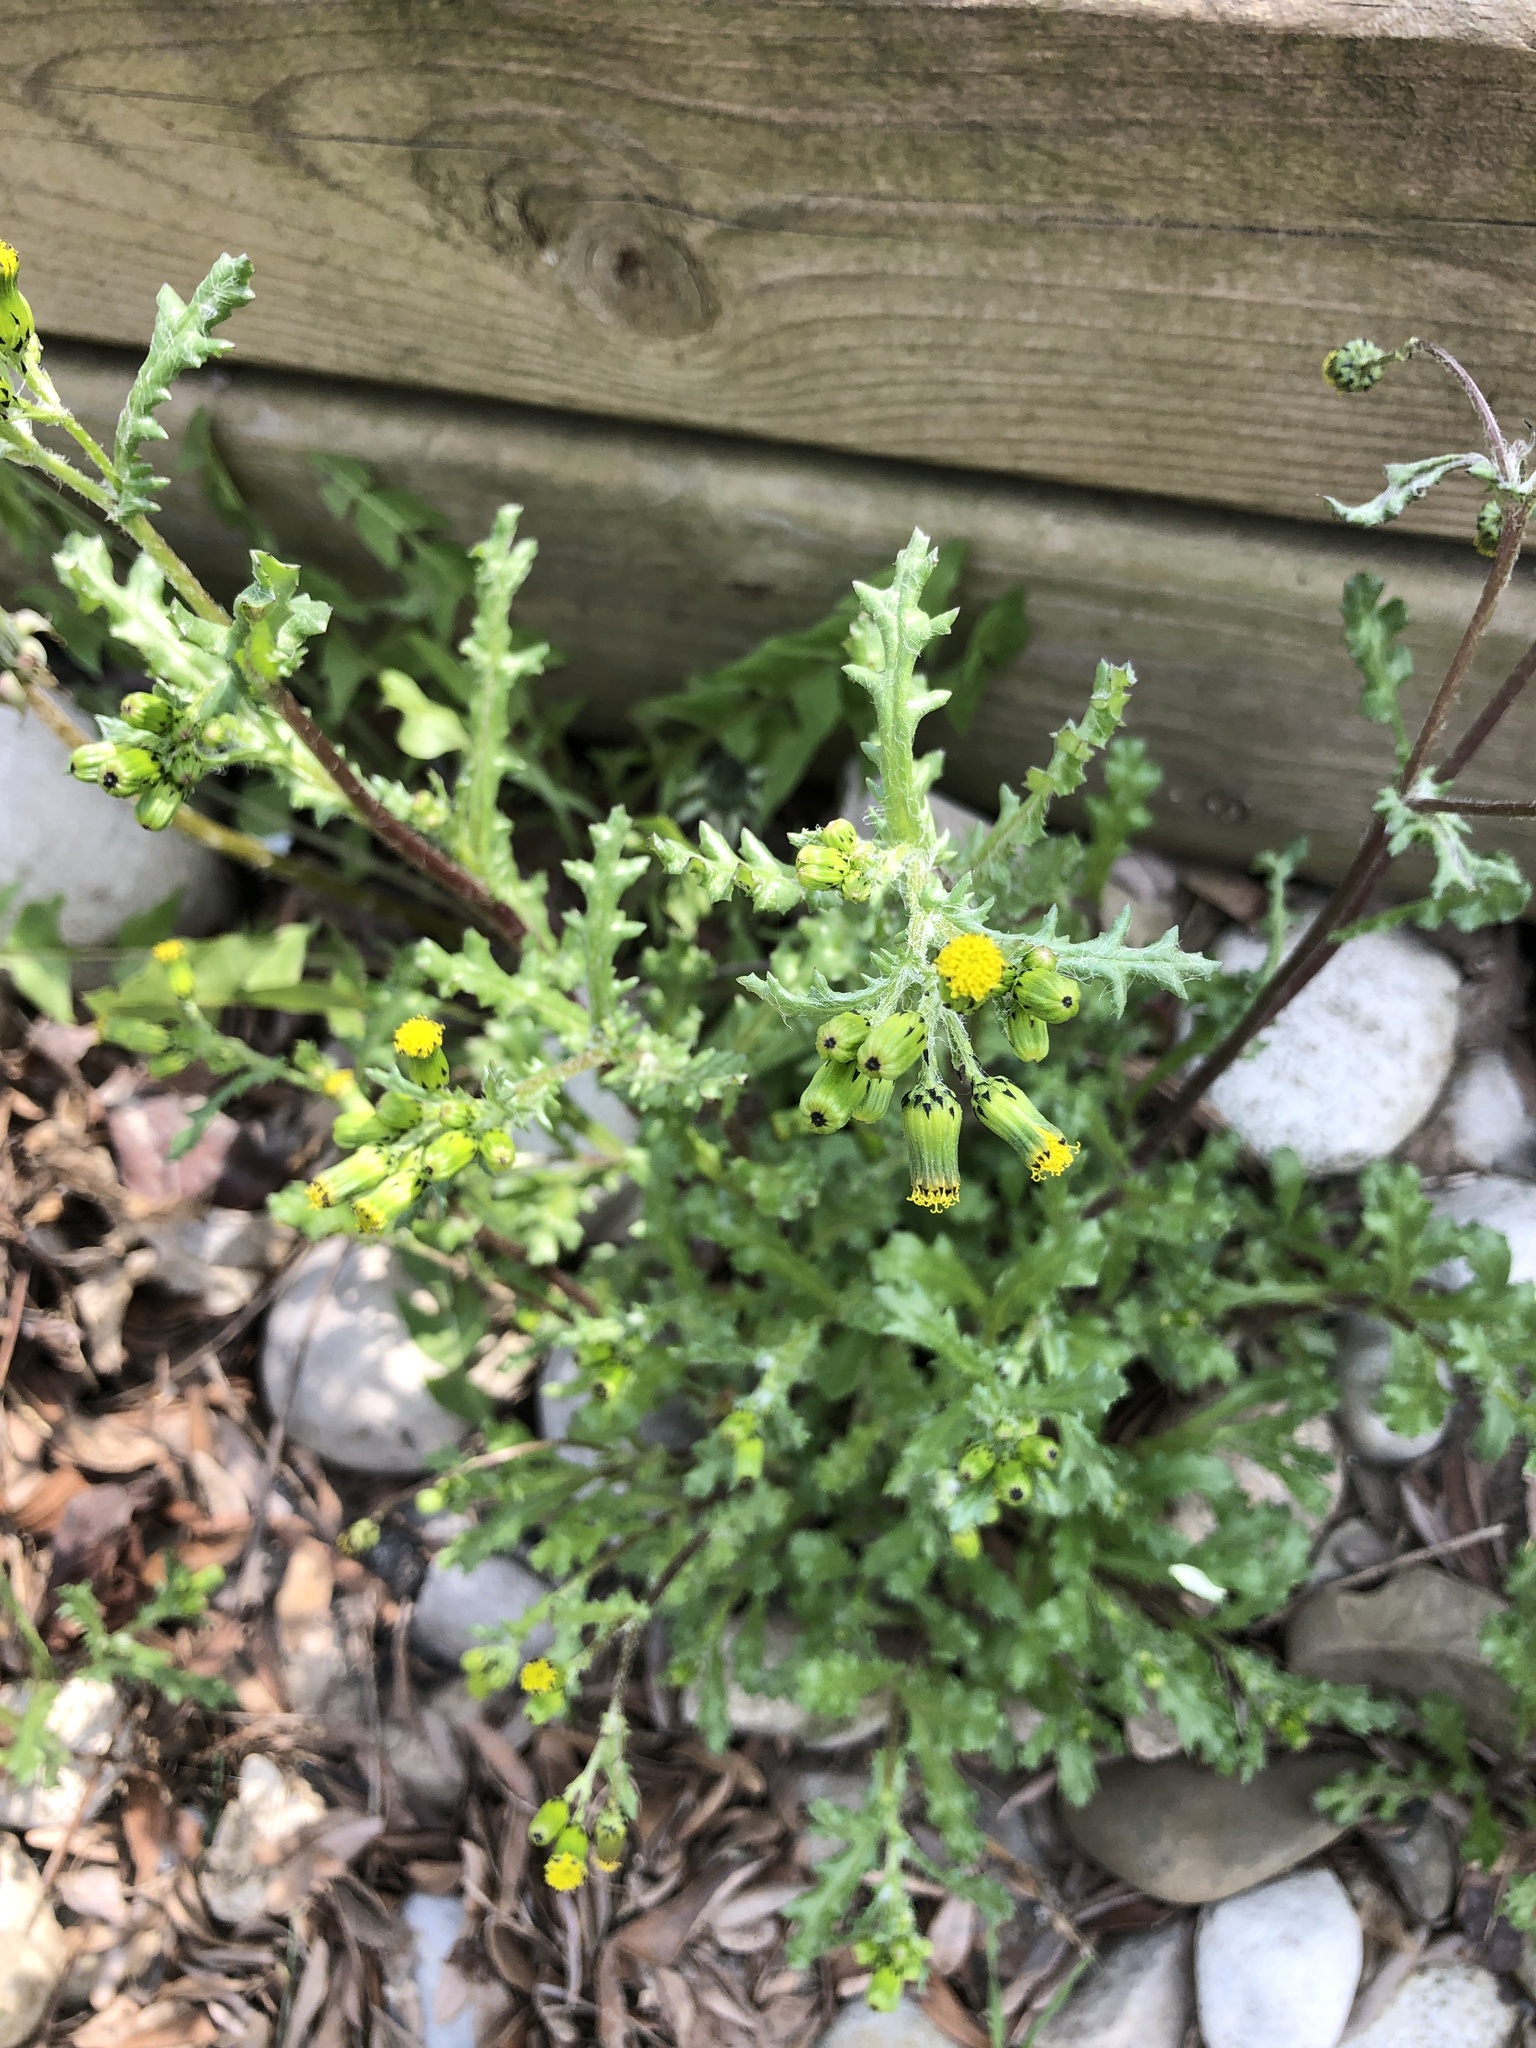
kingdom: Plantae
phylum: Tracheophyta
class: Magnoliopsida
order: Asterales
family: Asteraceae
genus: Senecio
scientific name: Senecio vulgaris
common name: Old-man-in-the-spring
